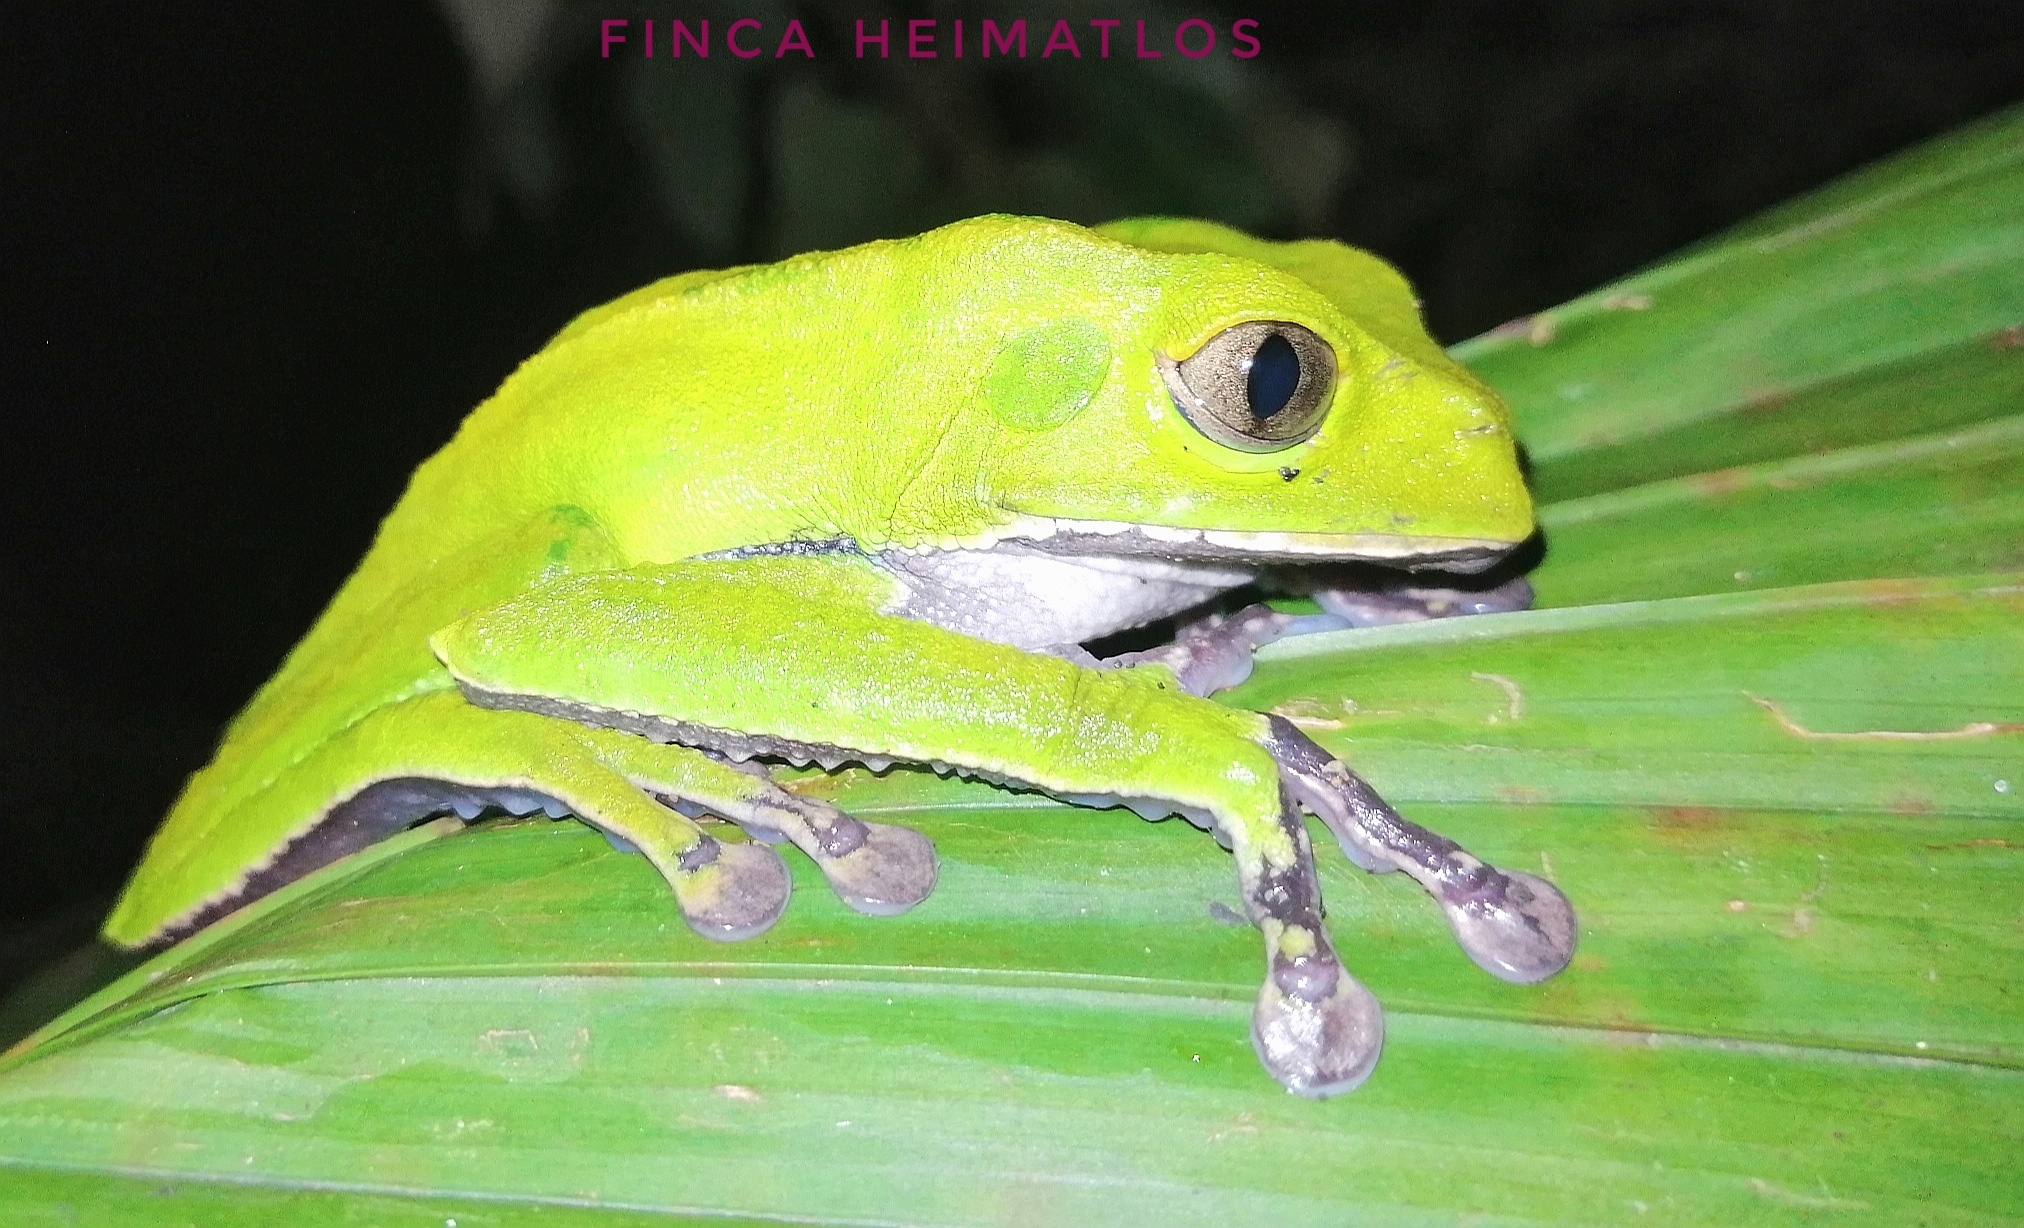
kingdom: Animalia
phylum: Chordata
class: Amphibia
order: Anura
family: Phyllomedusidae
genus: Phyllomedusa
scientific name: Phyllomedusa vaillantii
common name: White-lined leaf frog
